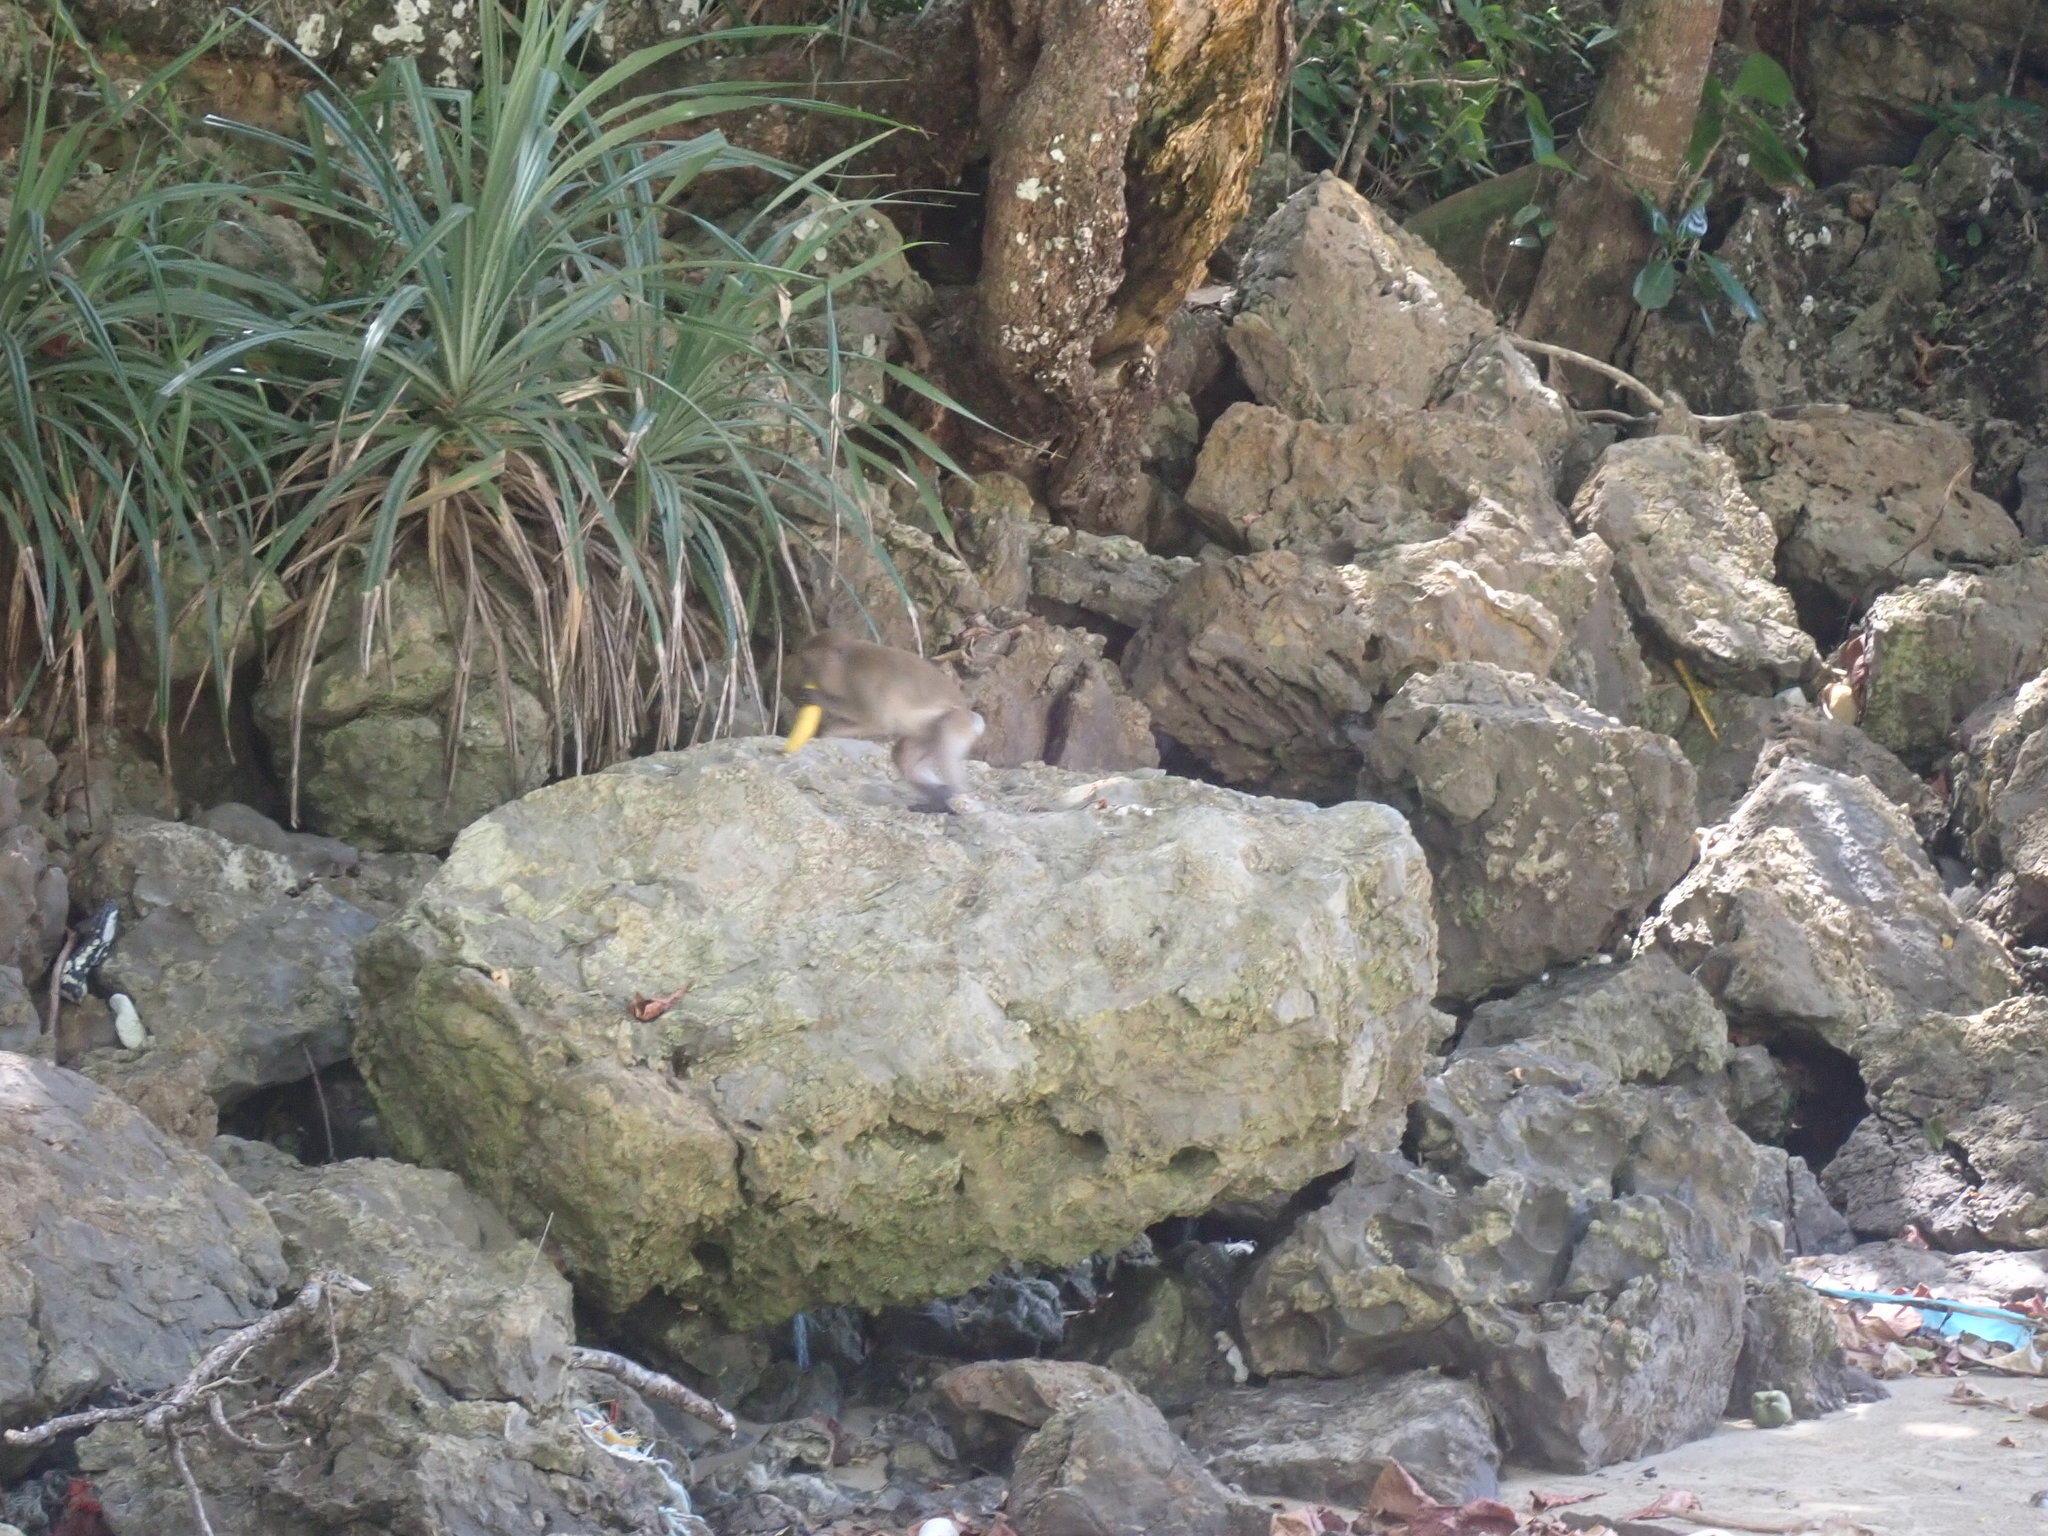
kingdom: Animalia
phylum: Chordata
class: Mammalia
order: Primates
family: Cercopithecidae
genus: Macaca
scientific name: Macaca fascicularis
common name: Crab-eating macaque
